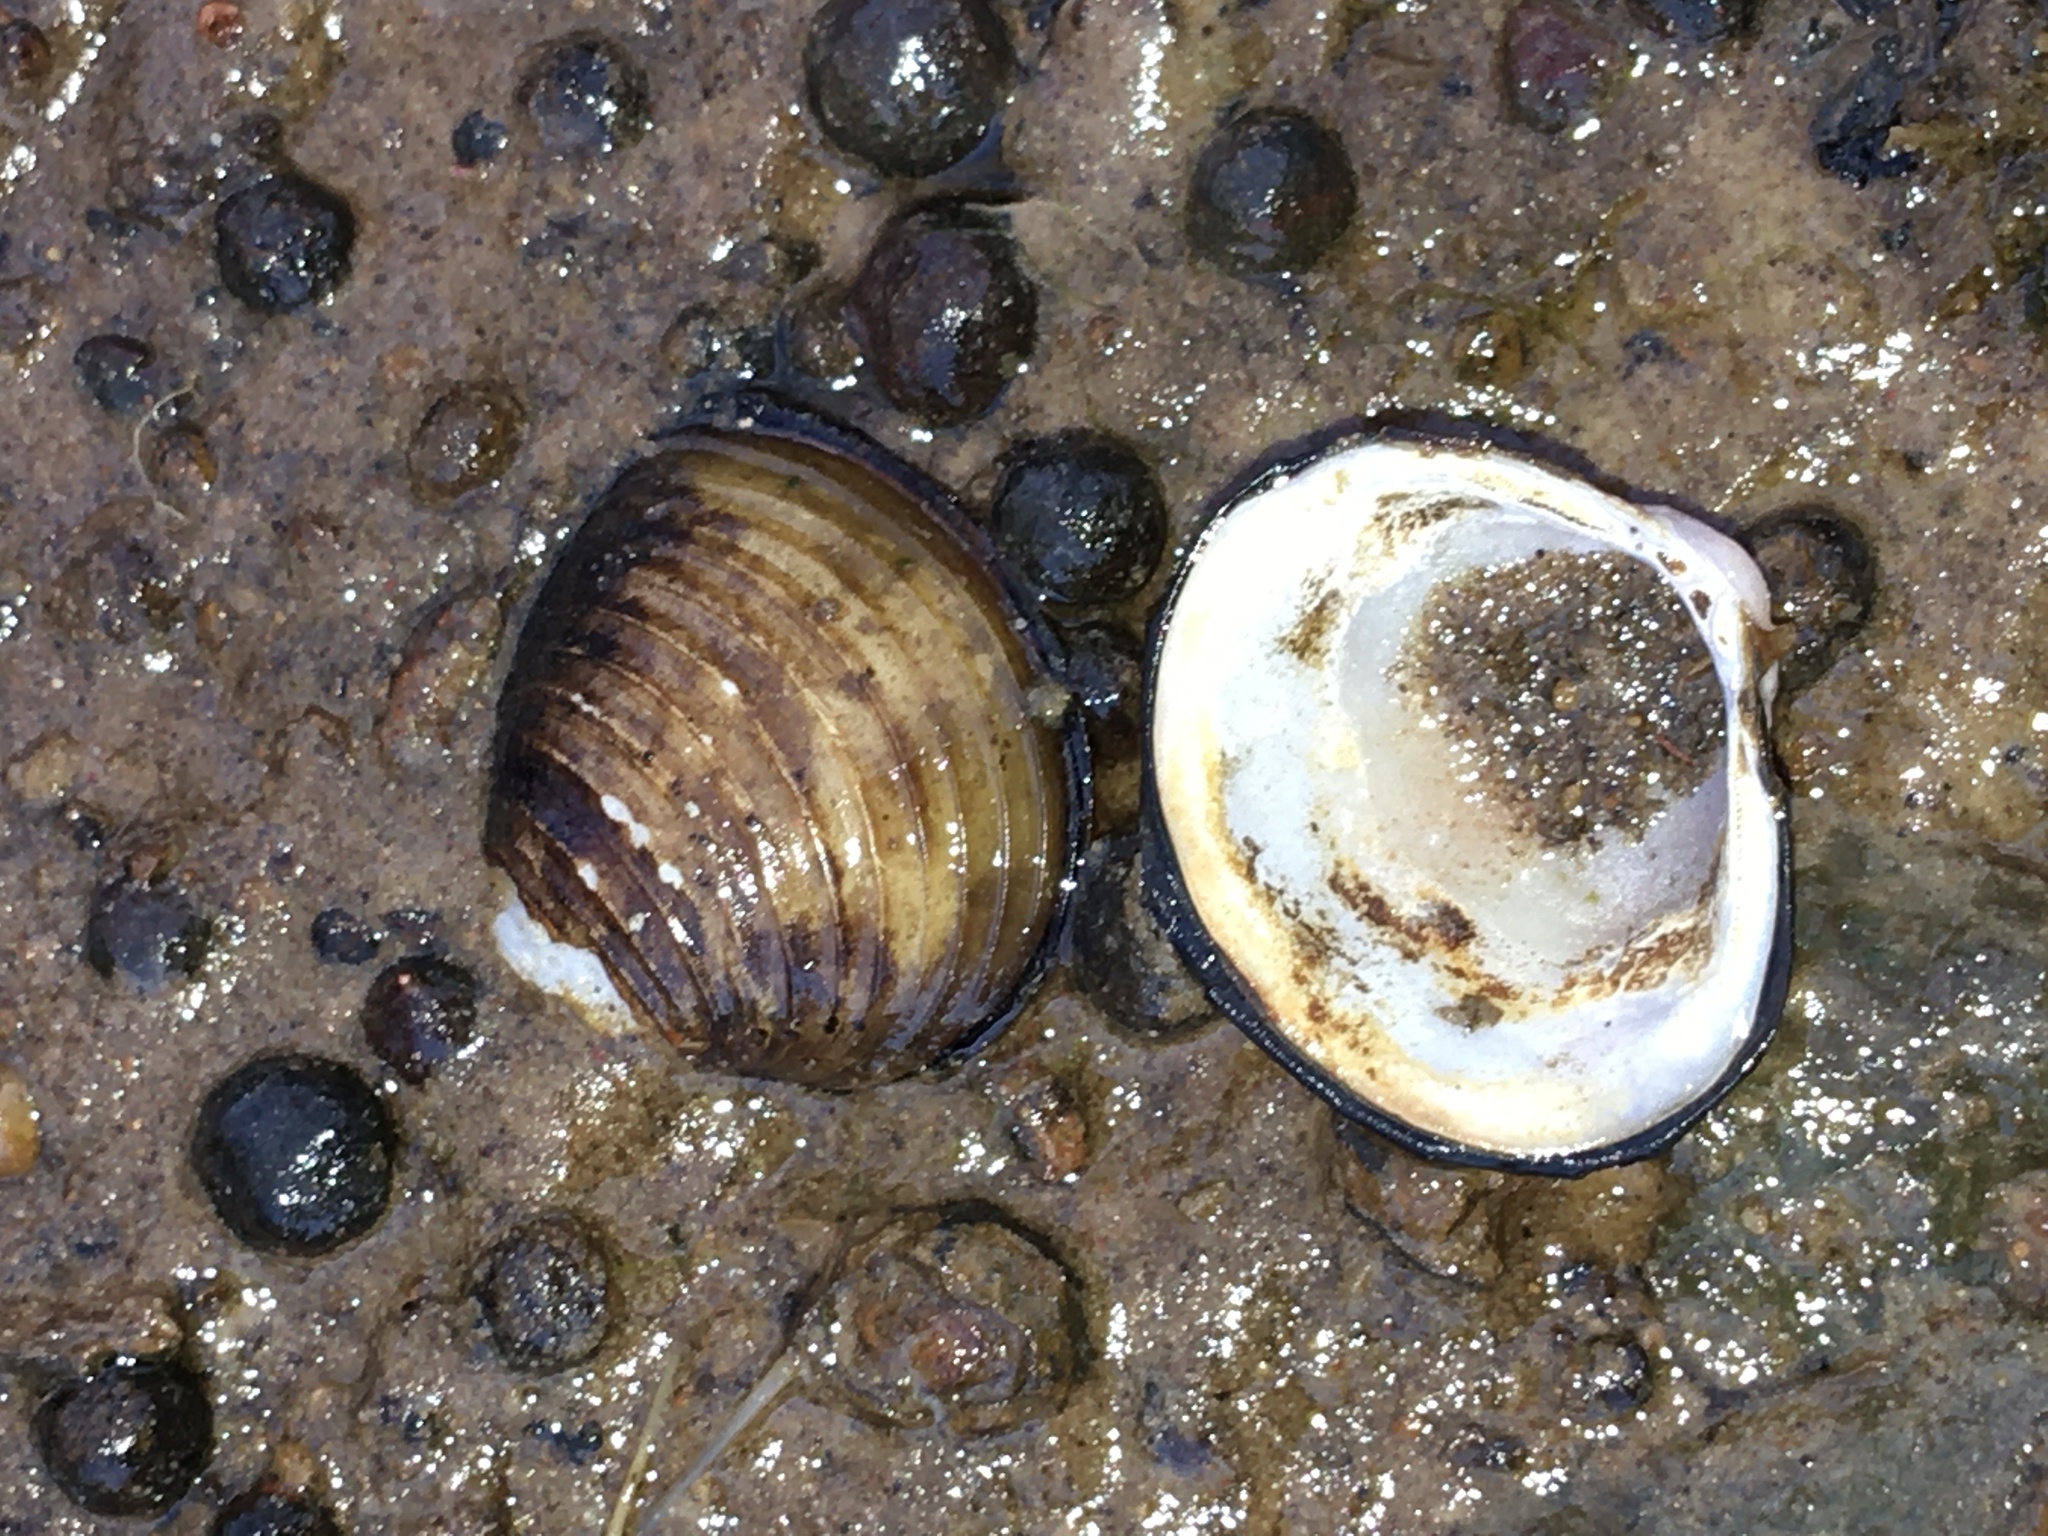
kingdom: Animalia
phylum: Mollusca
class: Bivalvia
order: Venerida
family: Cyrenidae
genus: Corbicula
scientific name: Corbicula fluminea
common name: Asian clam
